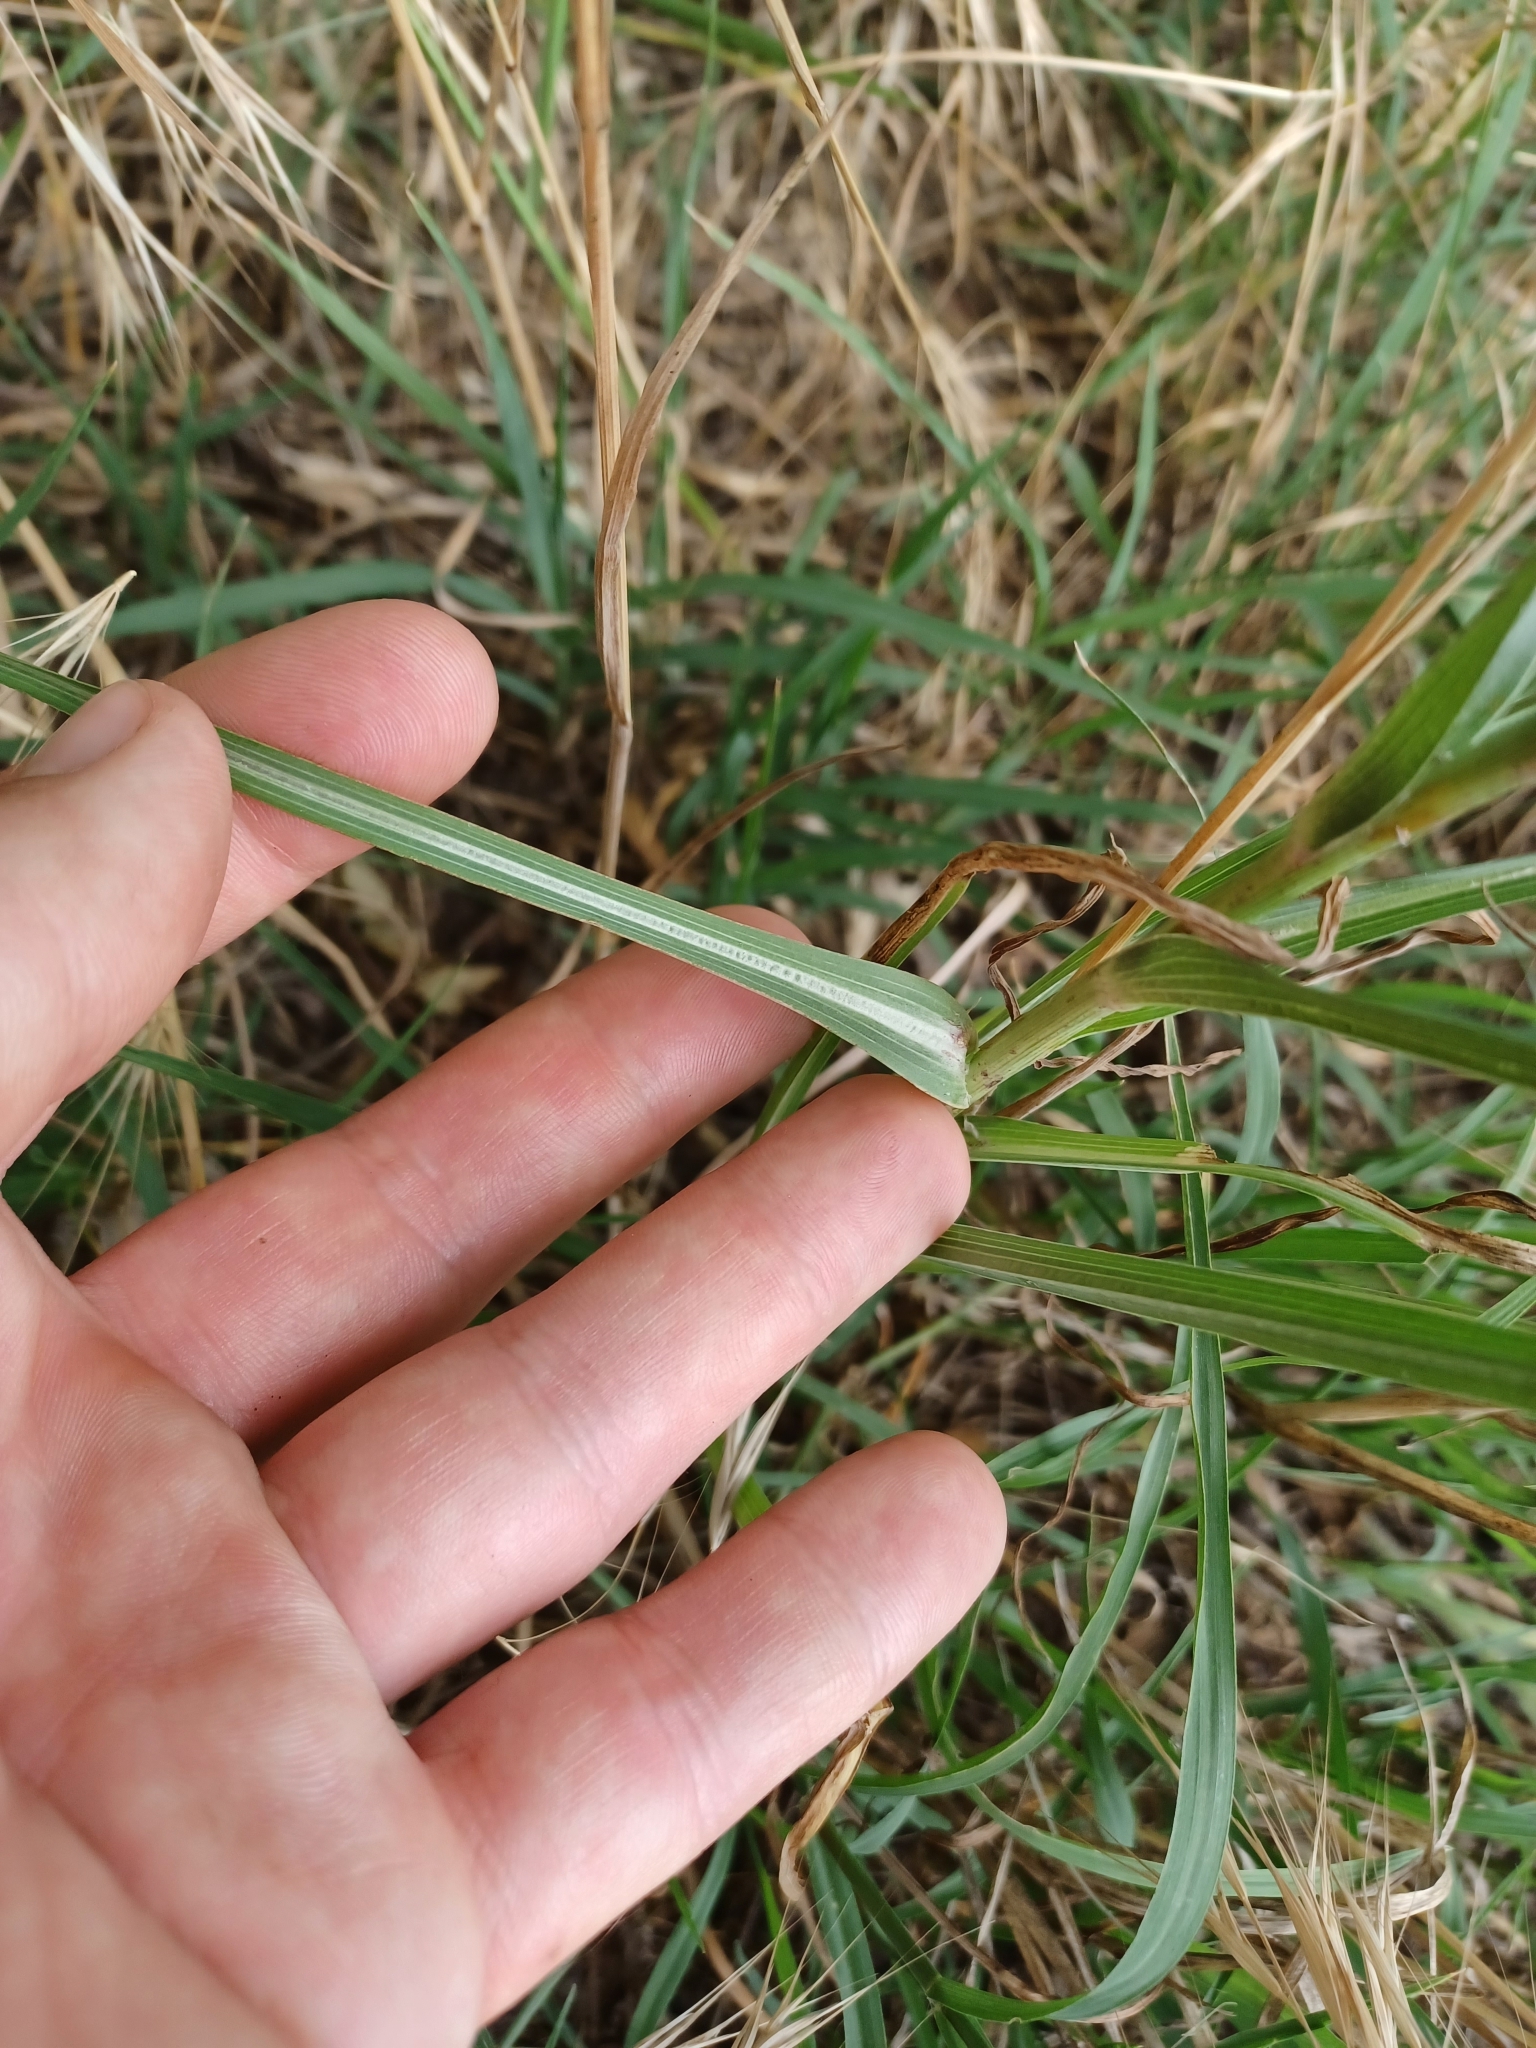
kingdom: Plantae
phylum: Tracheophyta
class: Magnoliopsida
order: Asterales
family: Asteraceae
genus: Tragopogon
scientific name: Tragopogon dubius
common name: Yellow salsify
